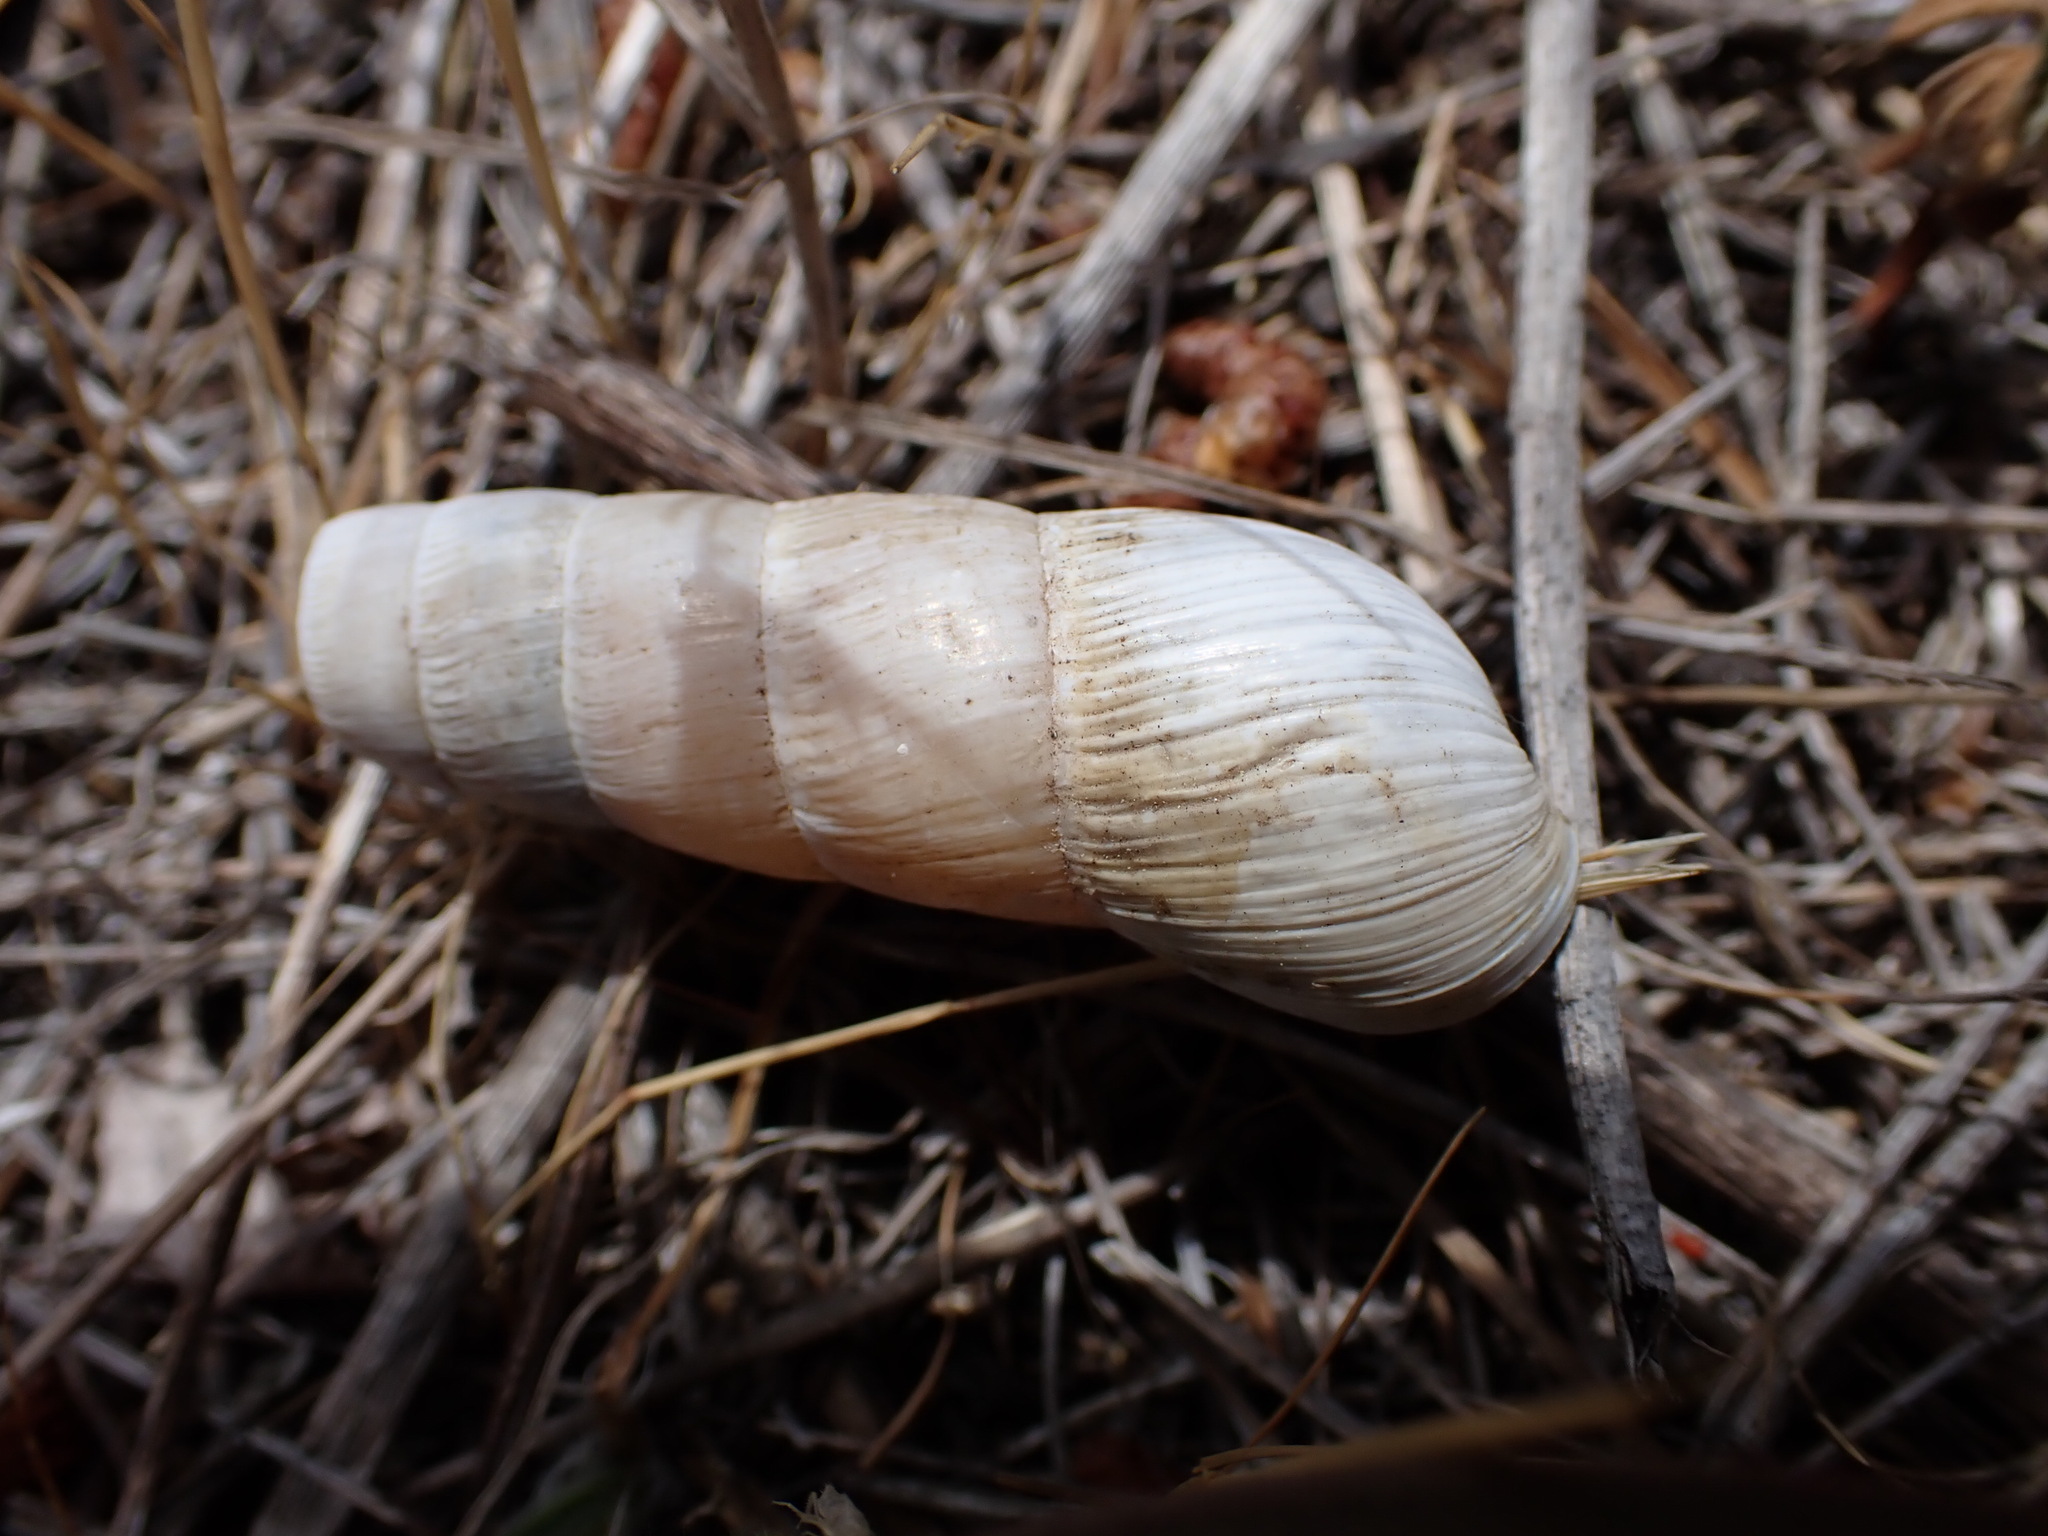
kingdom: Animalia
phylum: Mollusca
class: Gastropoda
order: Stylommatophora
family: Achatinidae
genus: Rumina
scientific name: Rumina decollata
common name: Decollate snail
